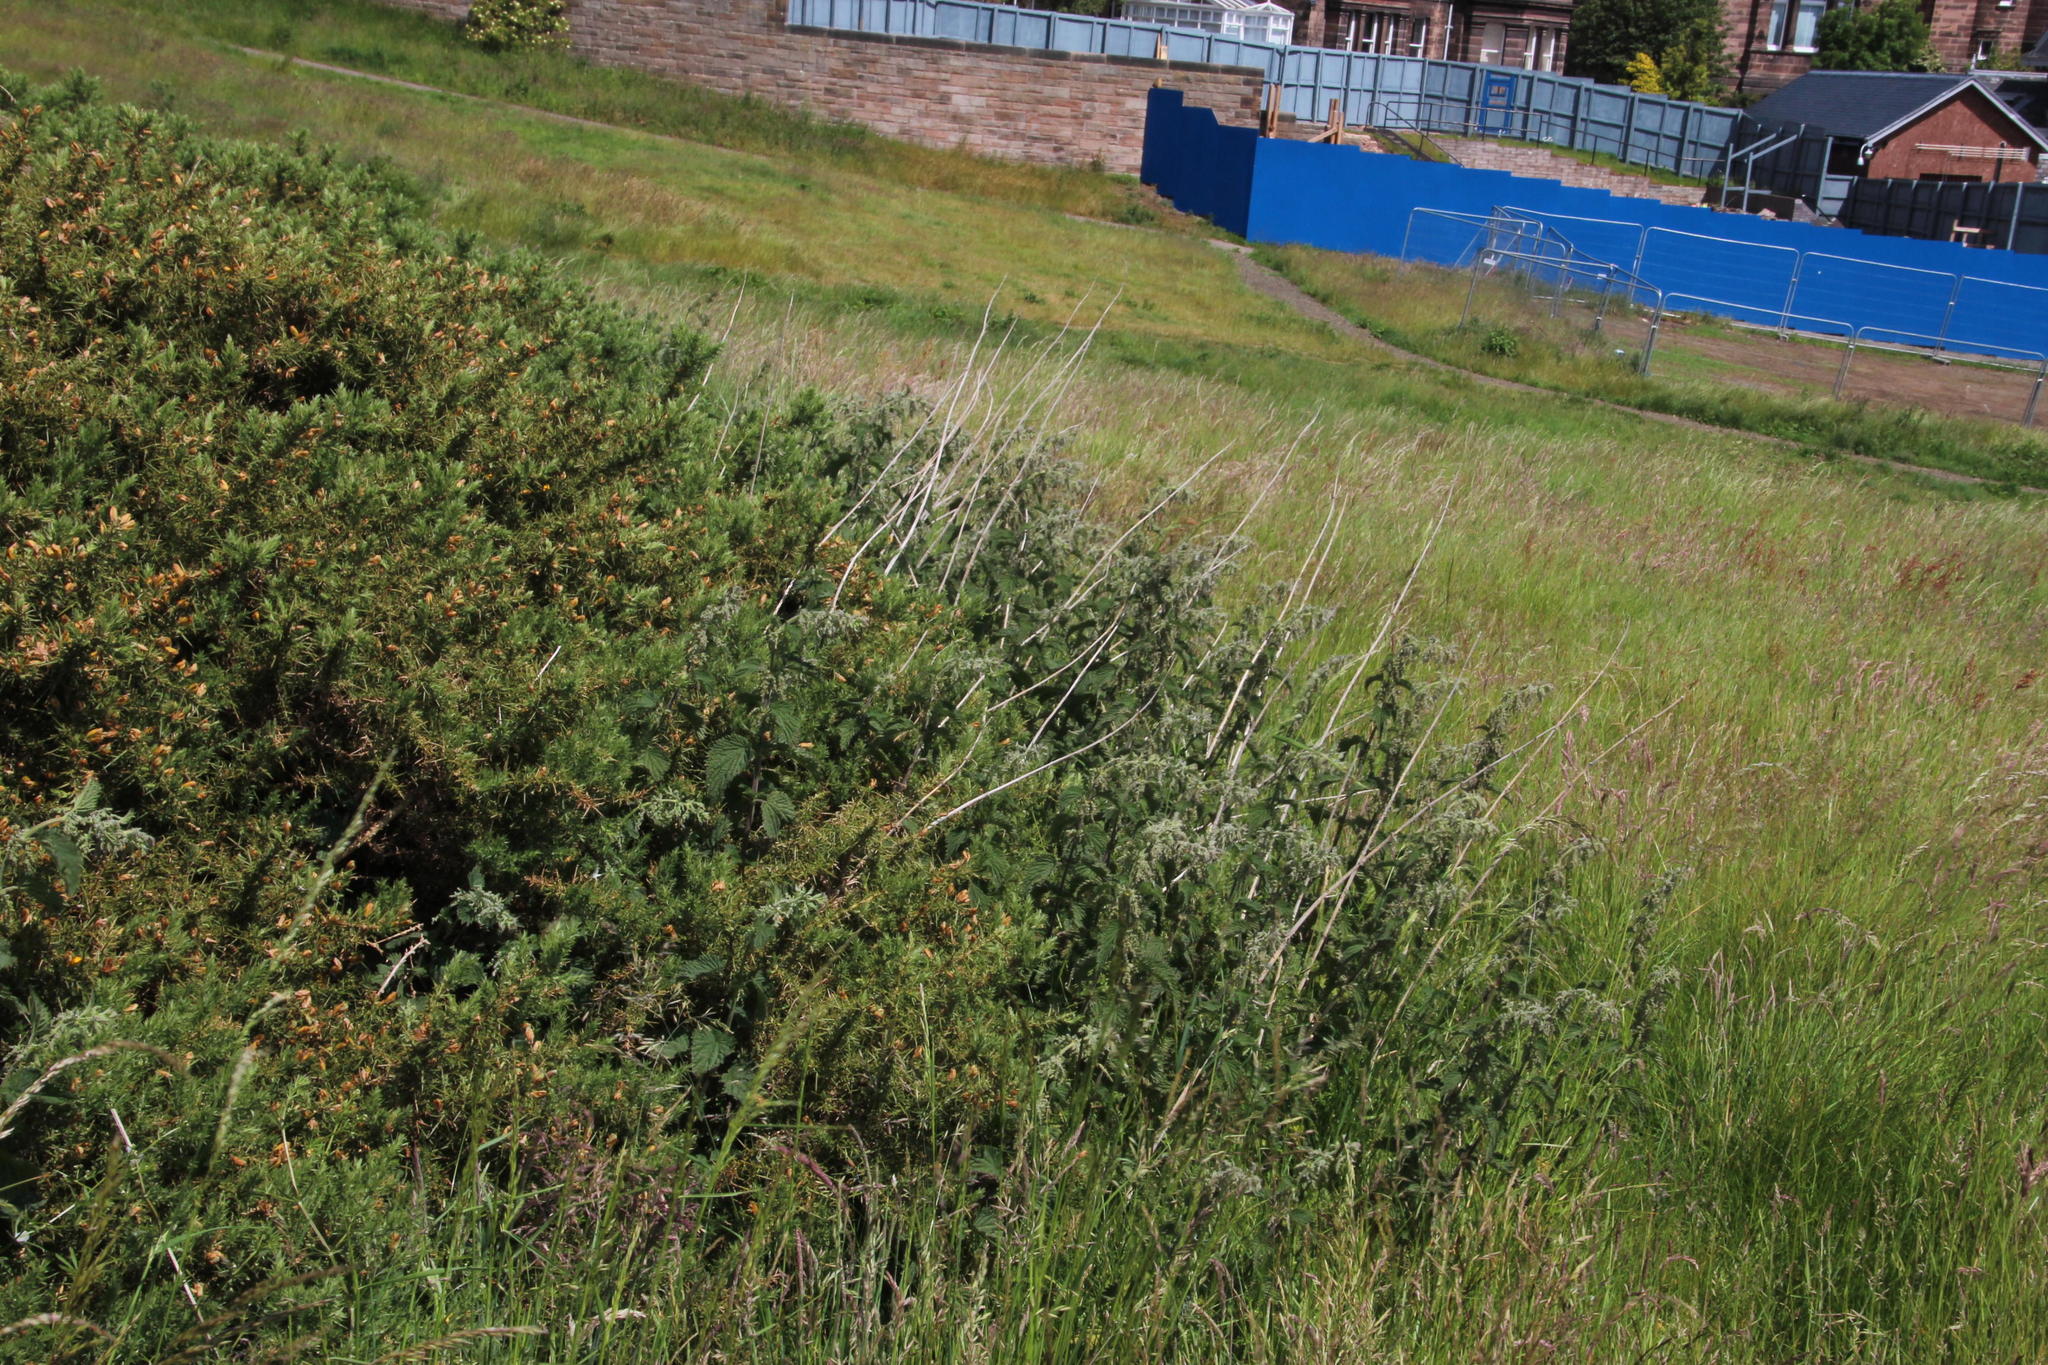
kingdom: Plantae
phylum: Tracheophyta
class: Magnoliopsida
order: Rosales
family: Urticaceae
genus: Urtica
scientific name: Urtica dioica
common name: Common nettle
